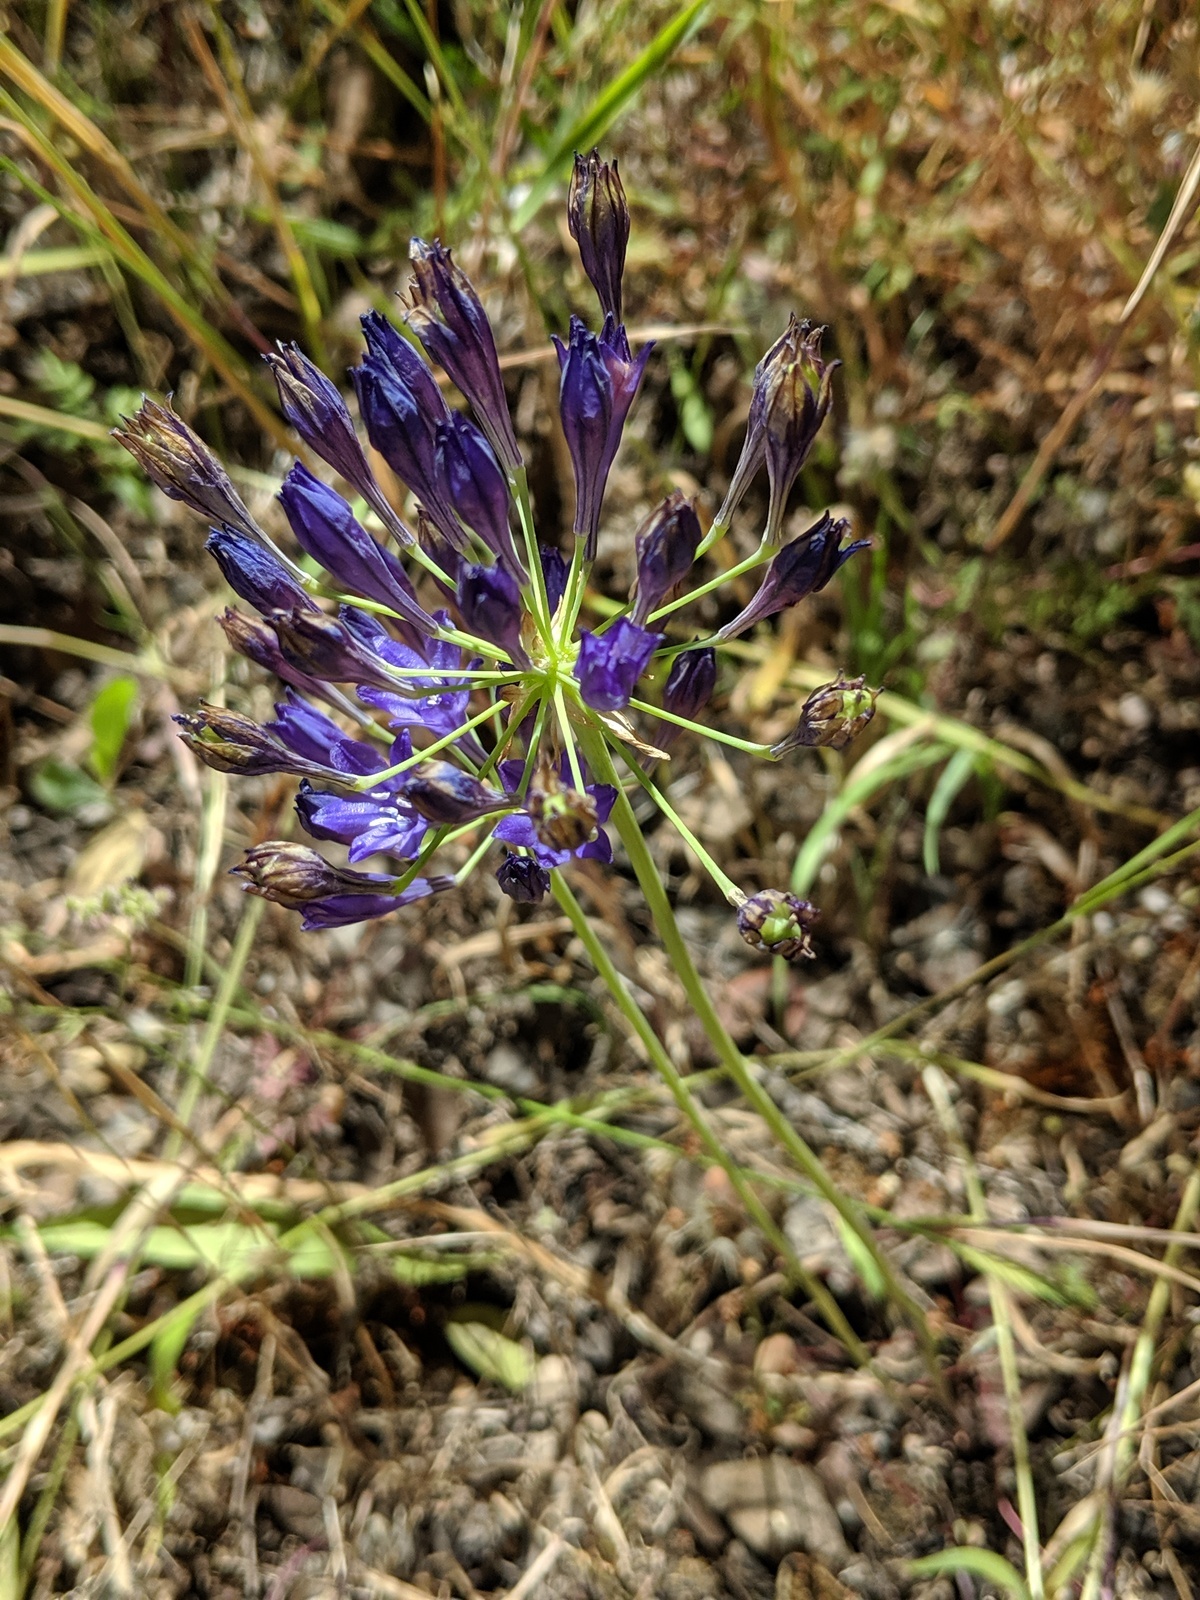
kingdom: Plantae
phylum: Tracheophyta
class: Liliopsida
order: Asparagales
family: Asparagaceae
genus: Triteleia
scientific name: Triteleia laxa
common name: Triplet-lily
